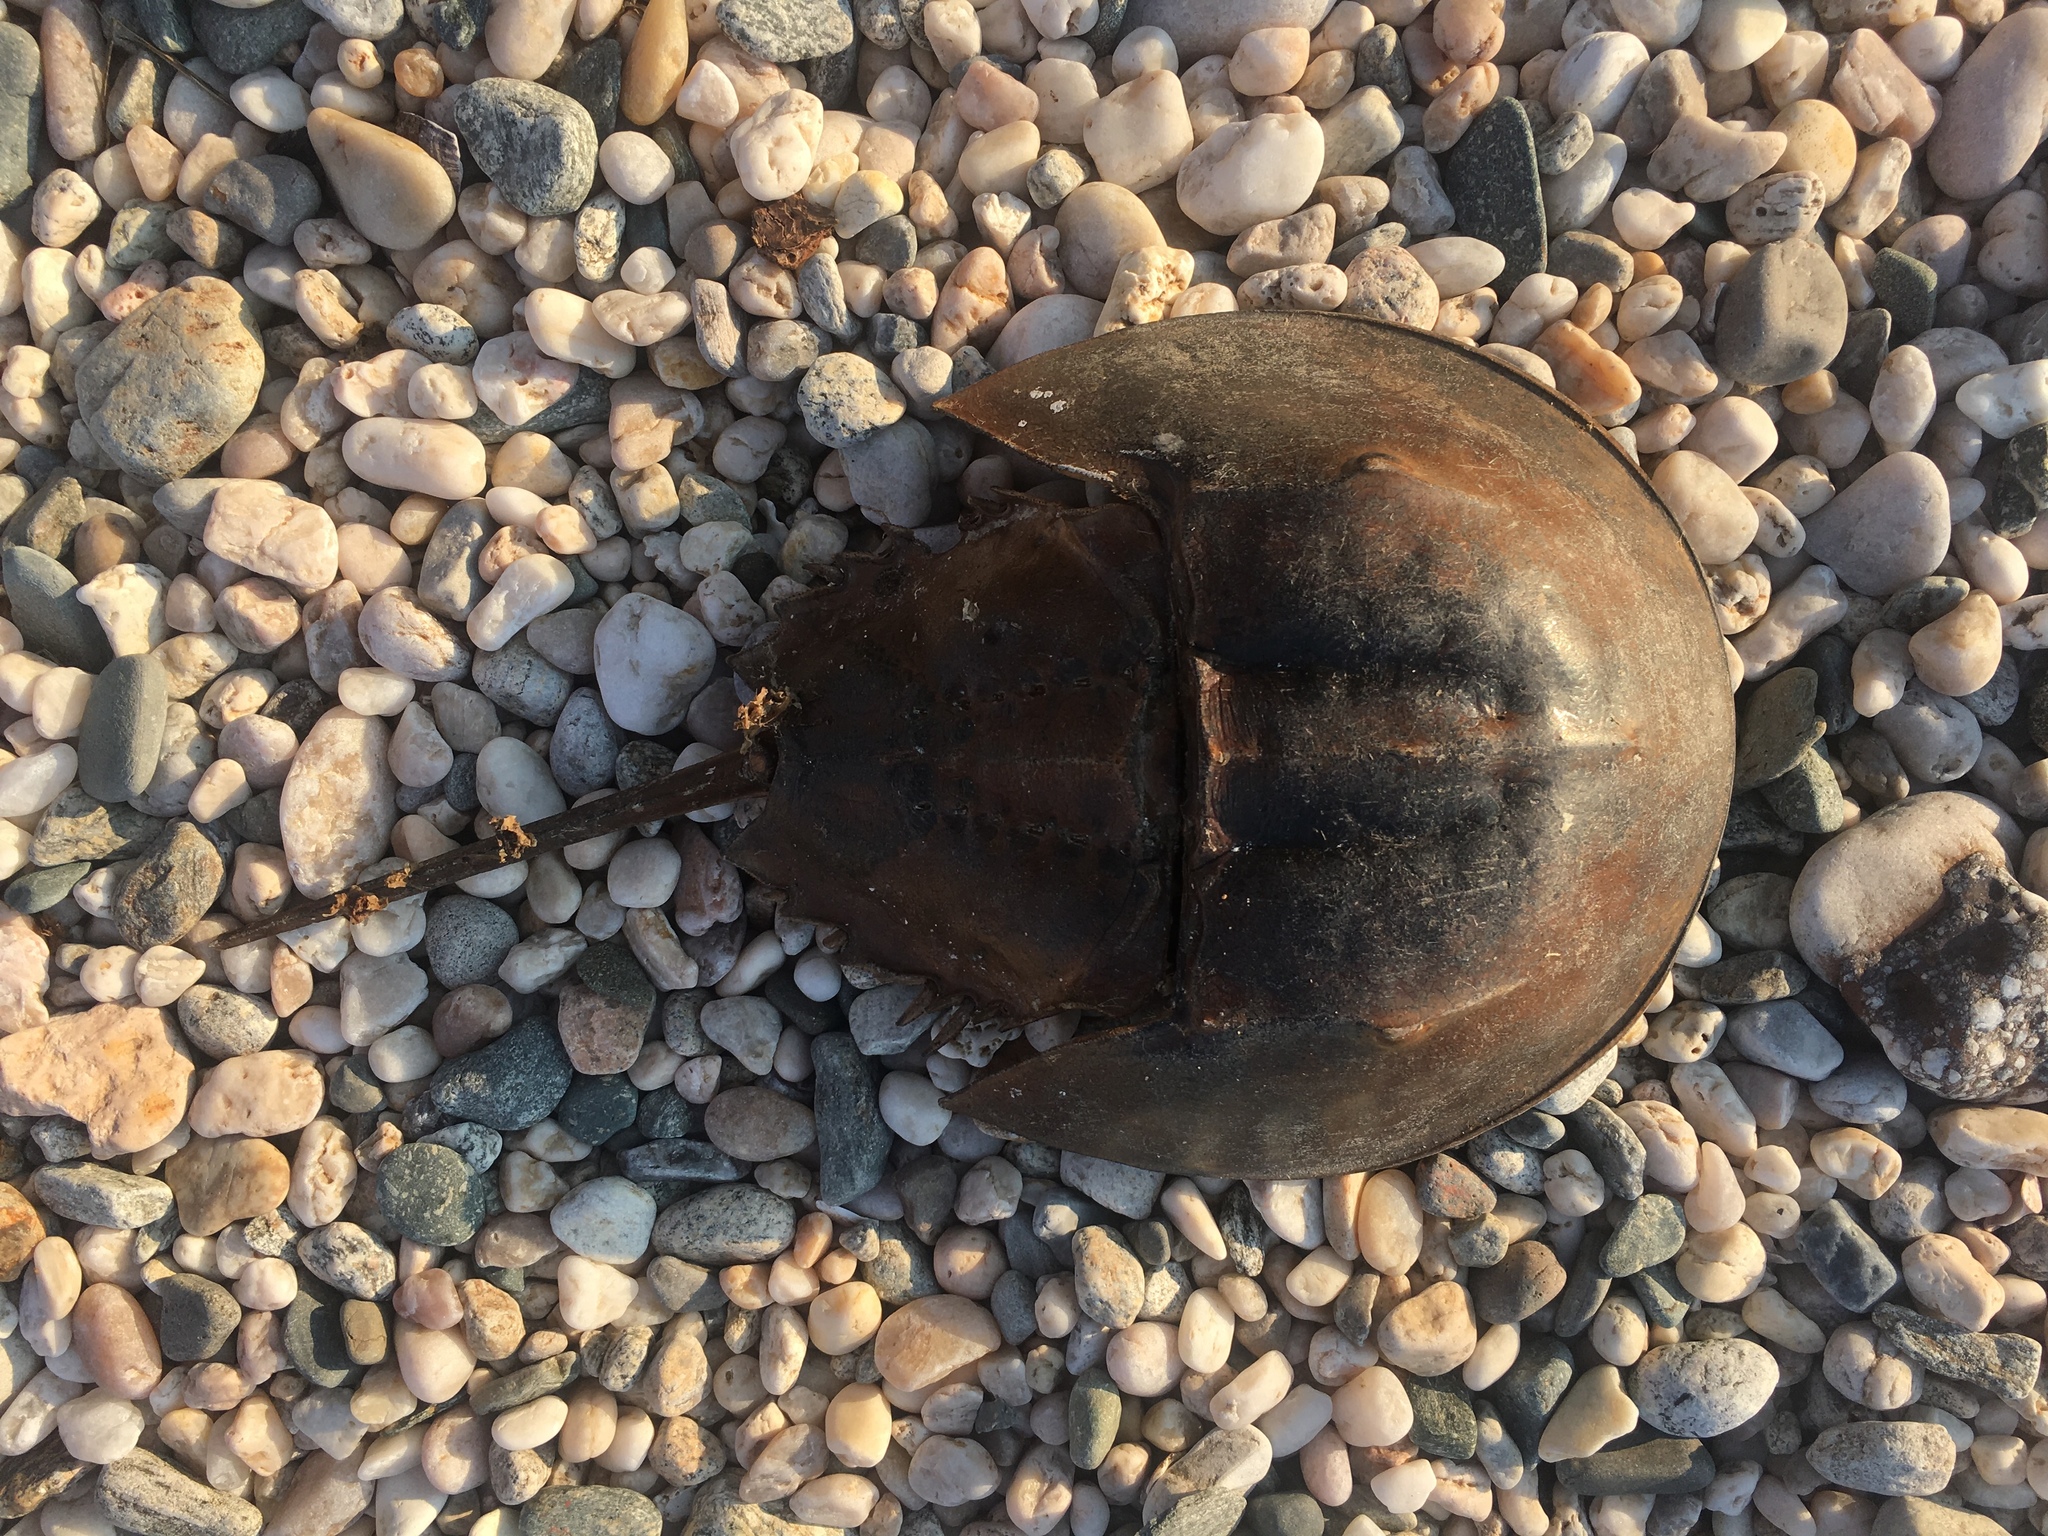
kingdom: Animalia
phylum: Arthropoda
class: Merostomata
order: Xiphosurida
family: Limulidae
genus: Limulus
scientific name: Limulus polyphemus
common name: Horseshoe crab
